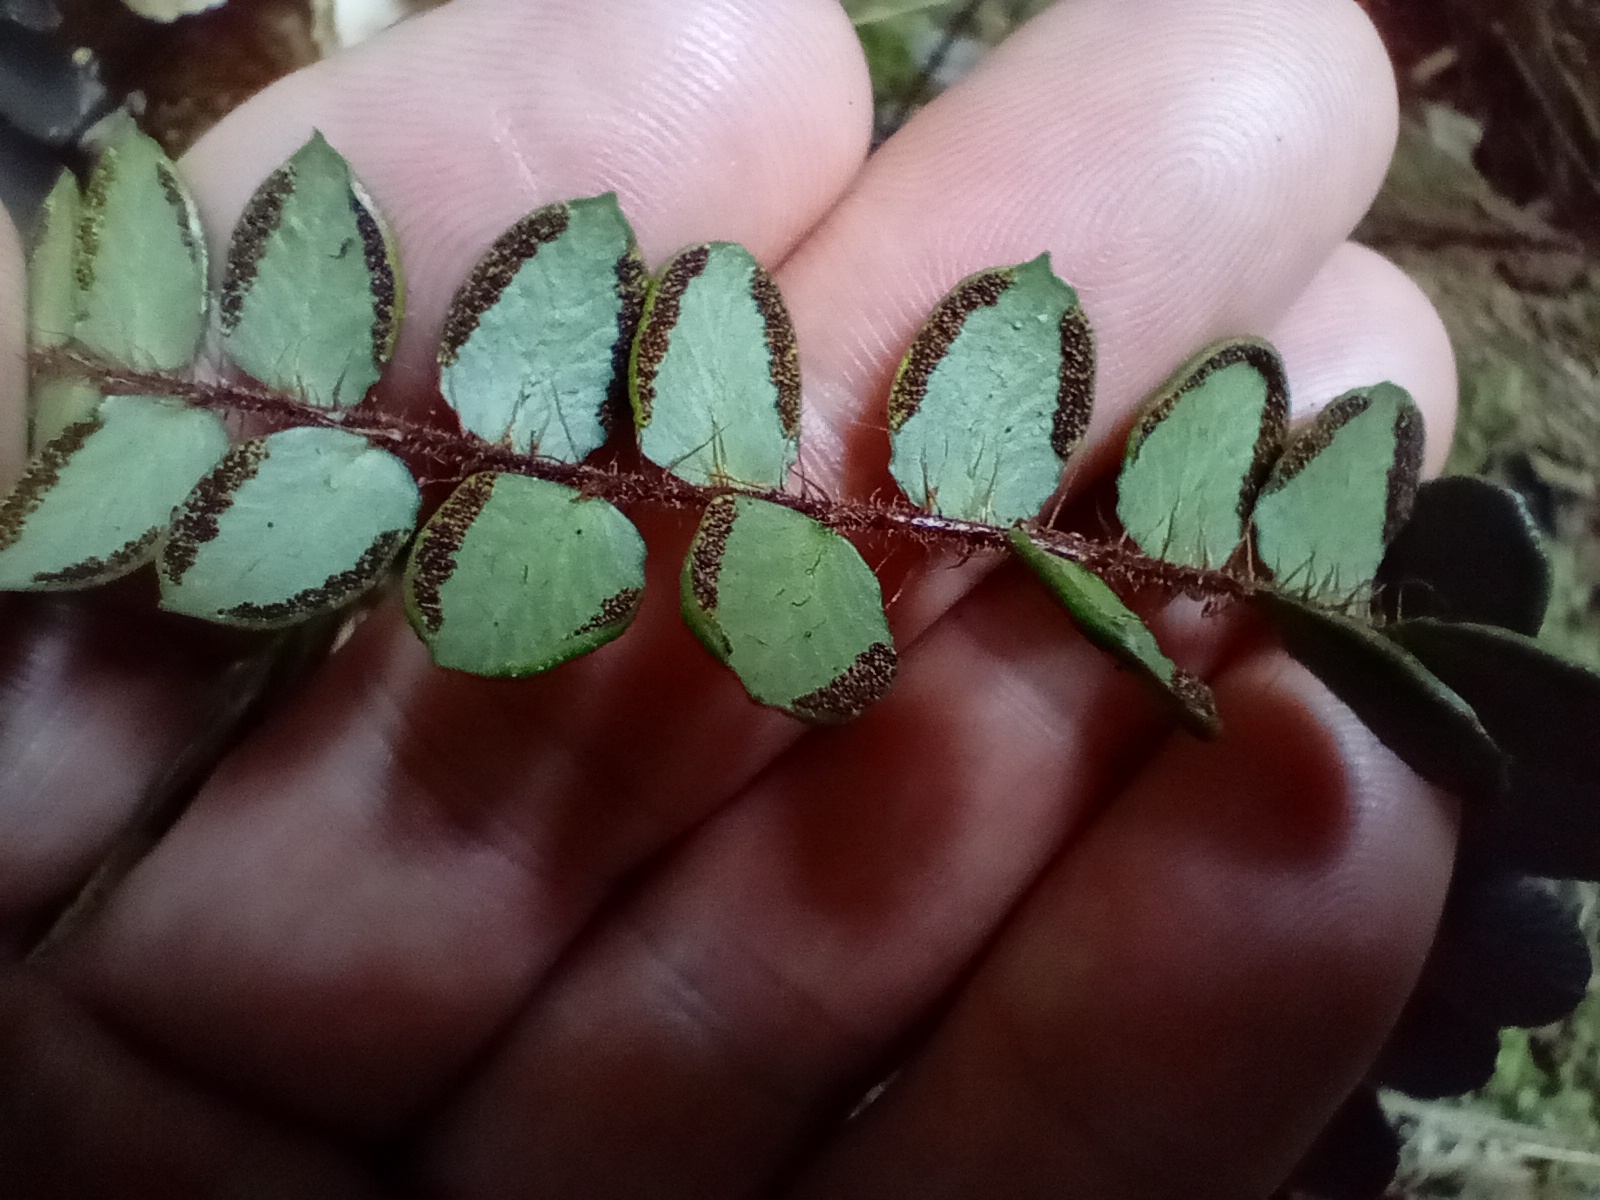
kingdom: Plantae
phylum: Tracheophyta
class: Polypodiopsida
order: Polypodiales
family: Pteridaceae
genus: Pellaea
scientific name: Pellaea rotundifolia
